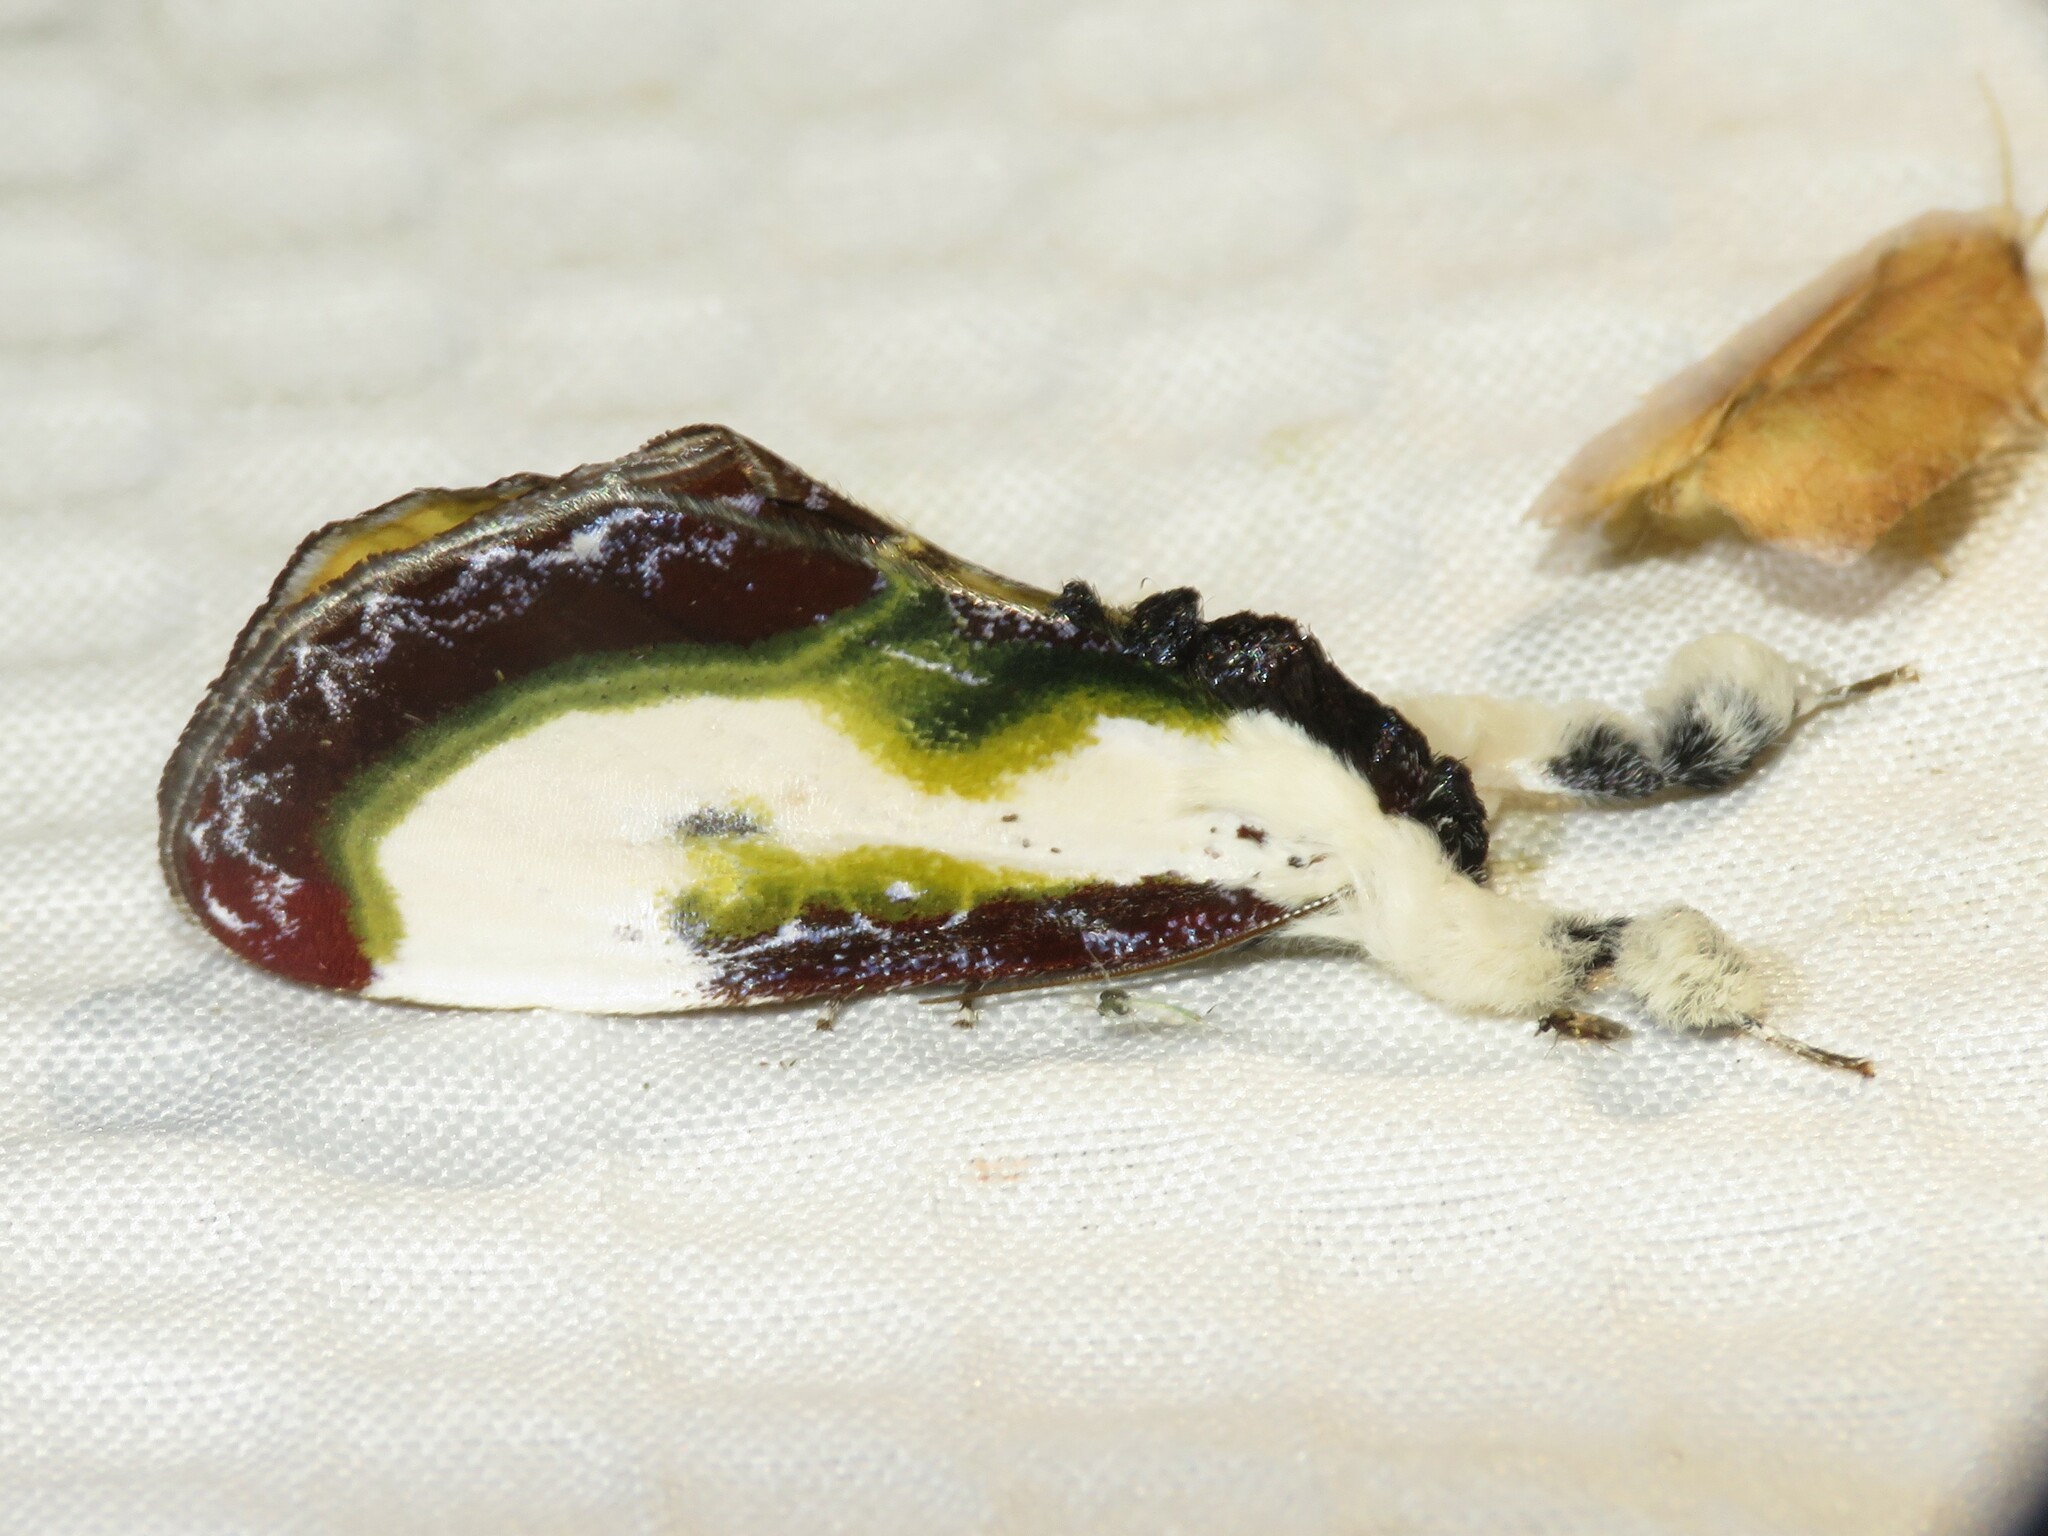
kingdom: Animalia
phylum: Arthropoda
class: Insecta
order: Lepidoptera
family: Noctuidae
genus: Eudryas
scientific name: Eudryas grata
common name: Beautiful wood-nymph
